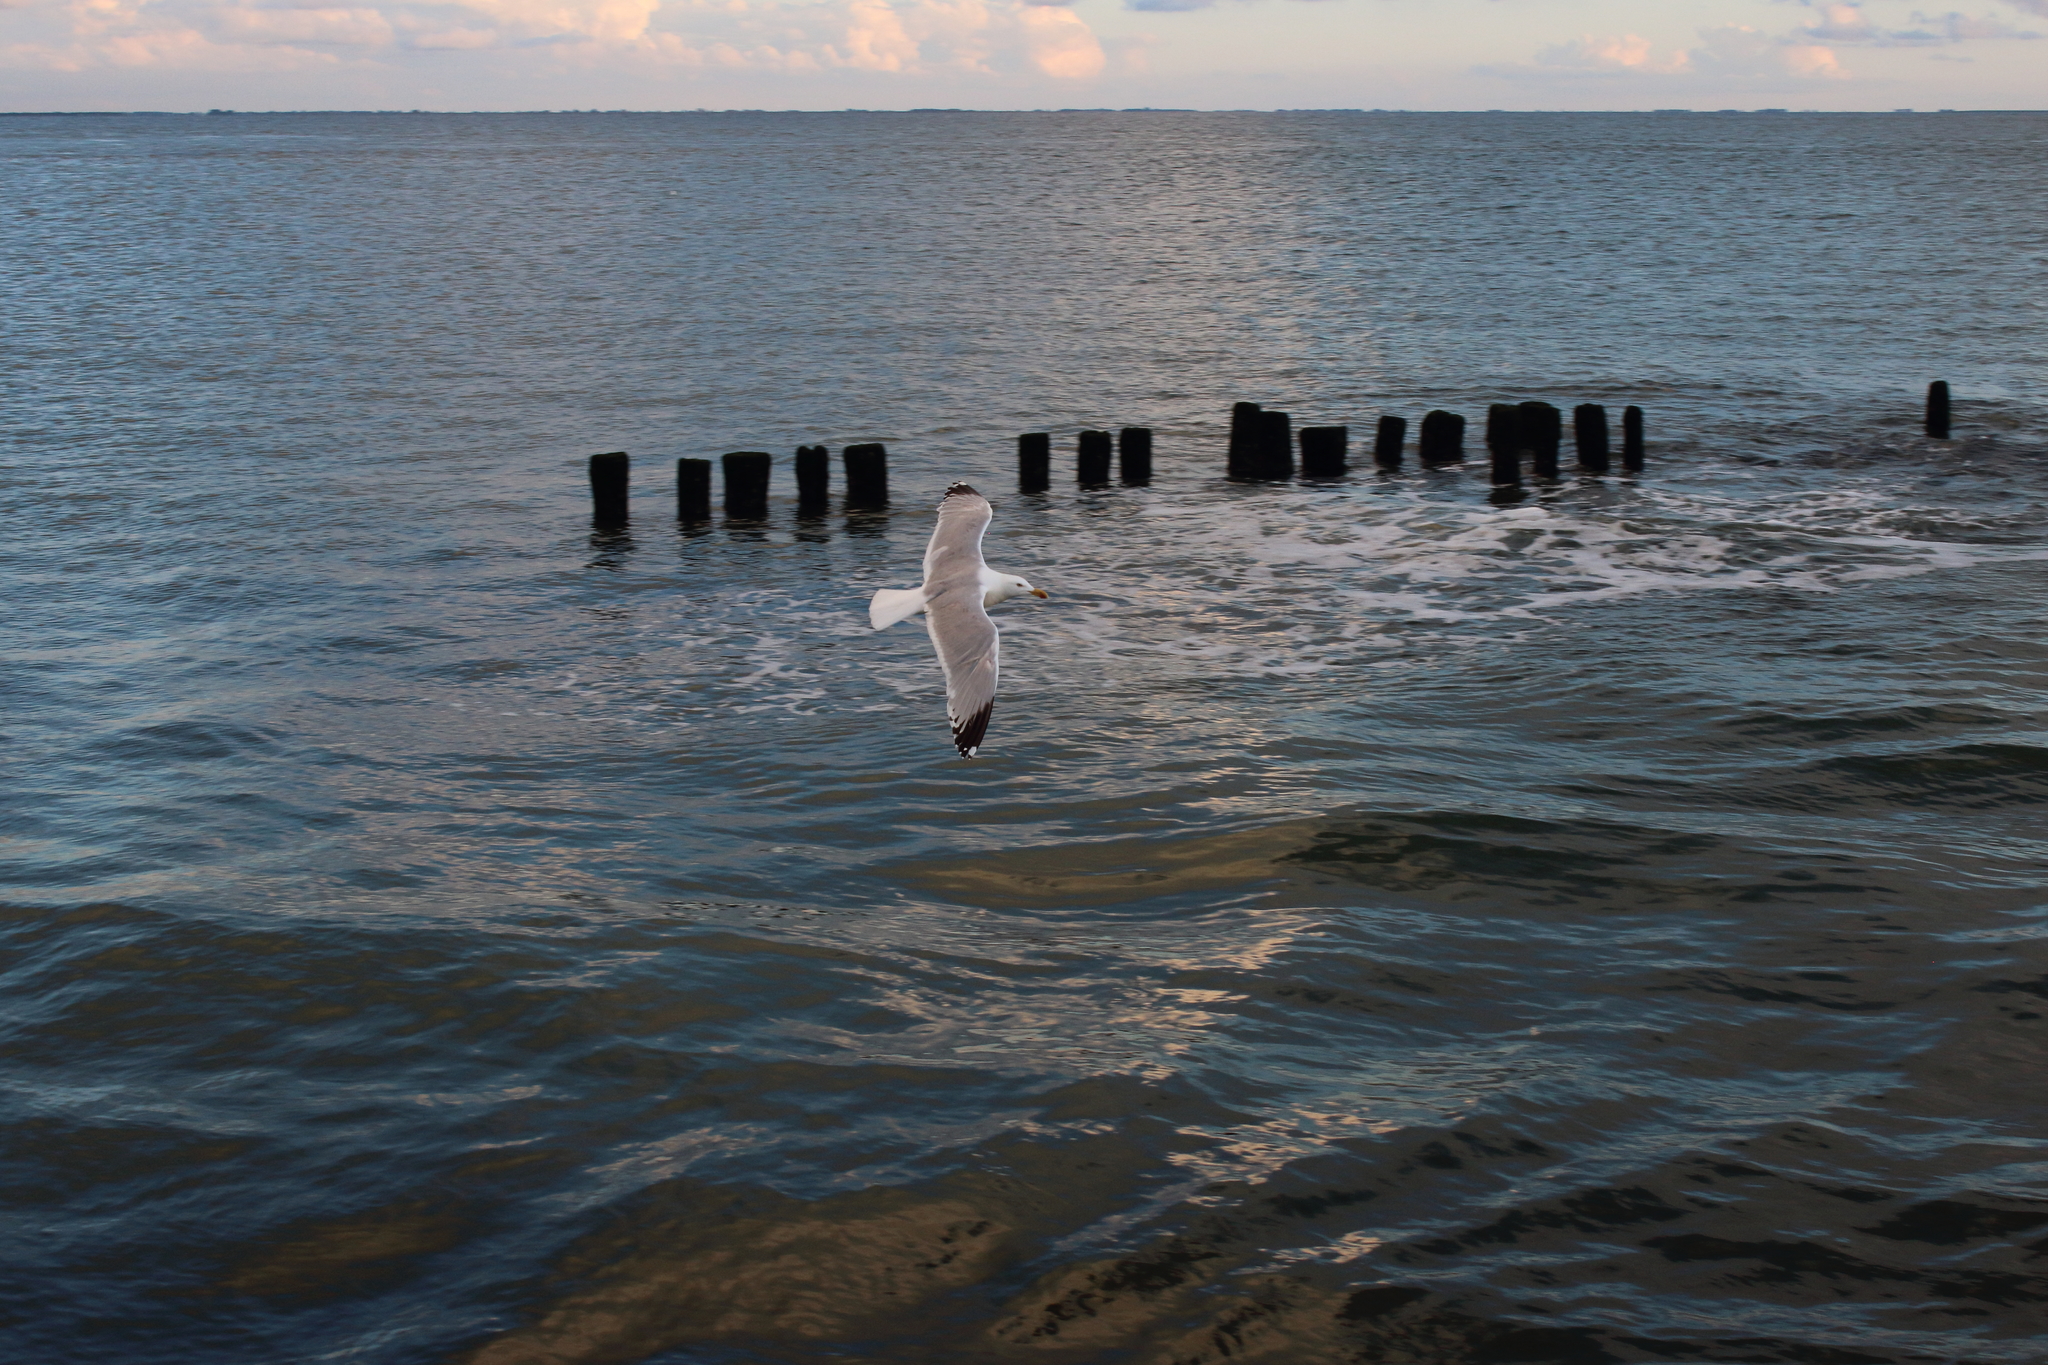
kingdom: Animalia
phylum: Chordata
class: Aves
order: Charadriiformes
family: Laridae
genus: Larus
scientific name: Larus argentatus
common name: Herring gull
